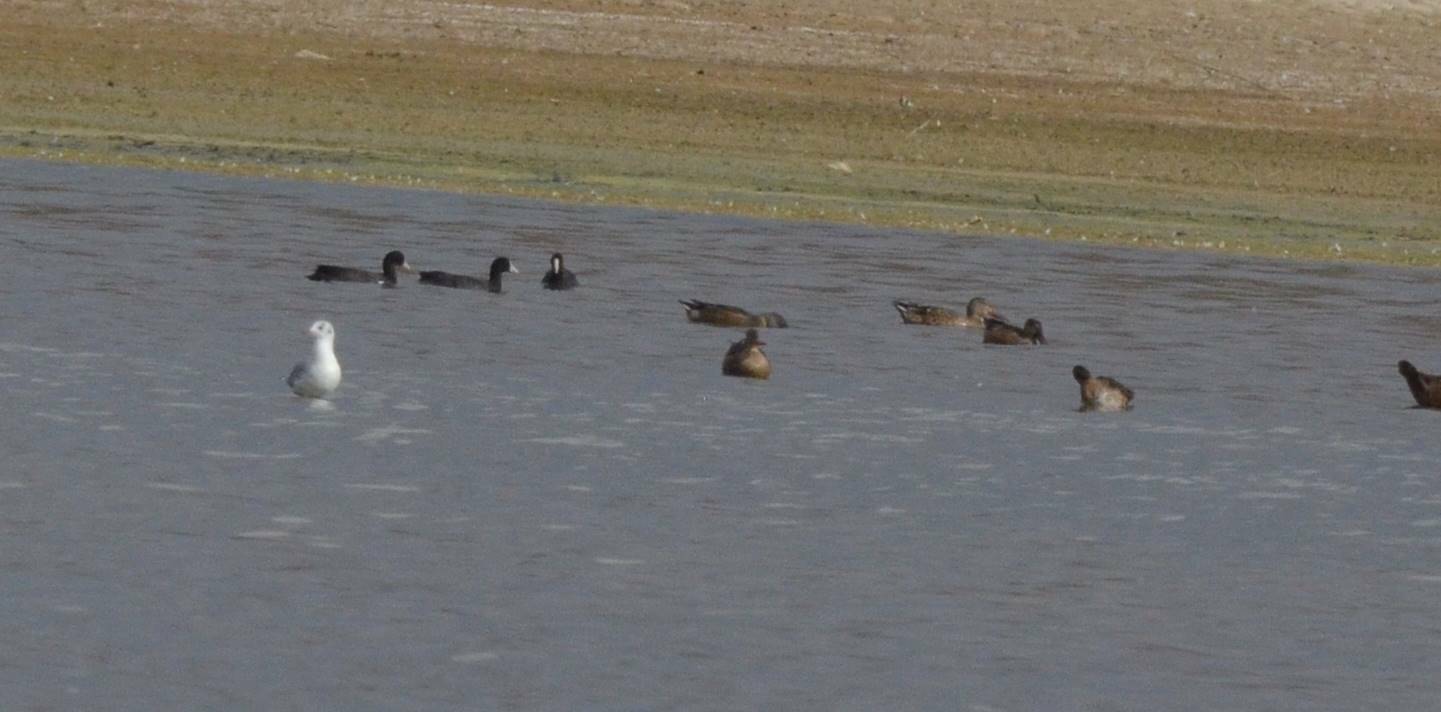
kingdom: Animalia
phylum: Chordata
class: Aves
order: Gruiformes
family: Rallidae
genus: Fulica
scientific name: Fulica atra
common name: Eurasian coot
